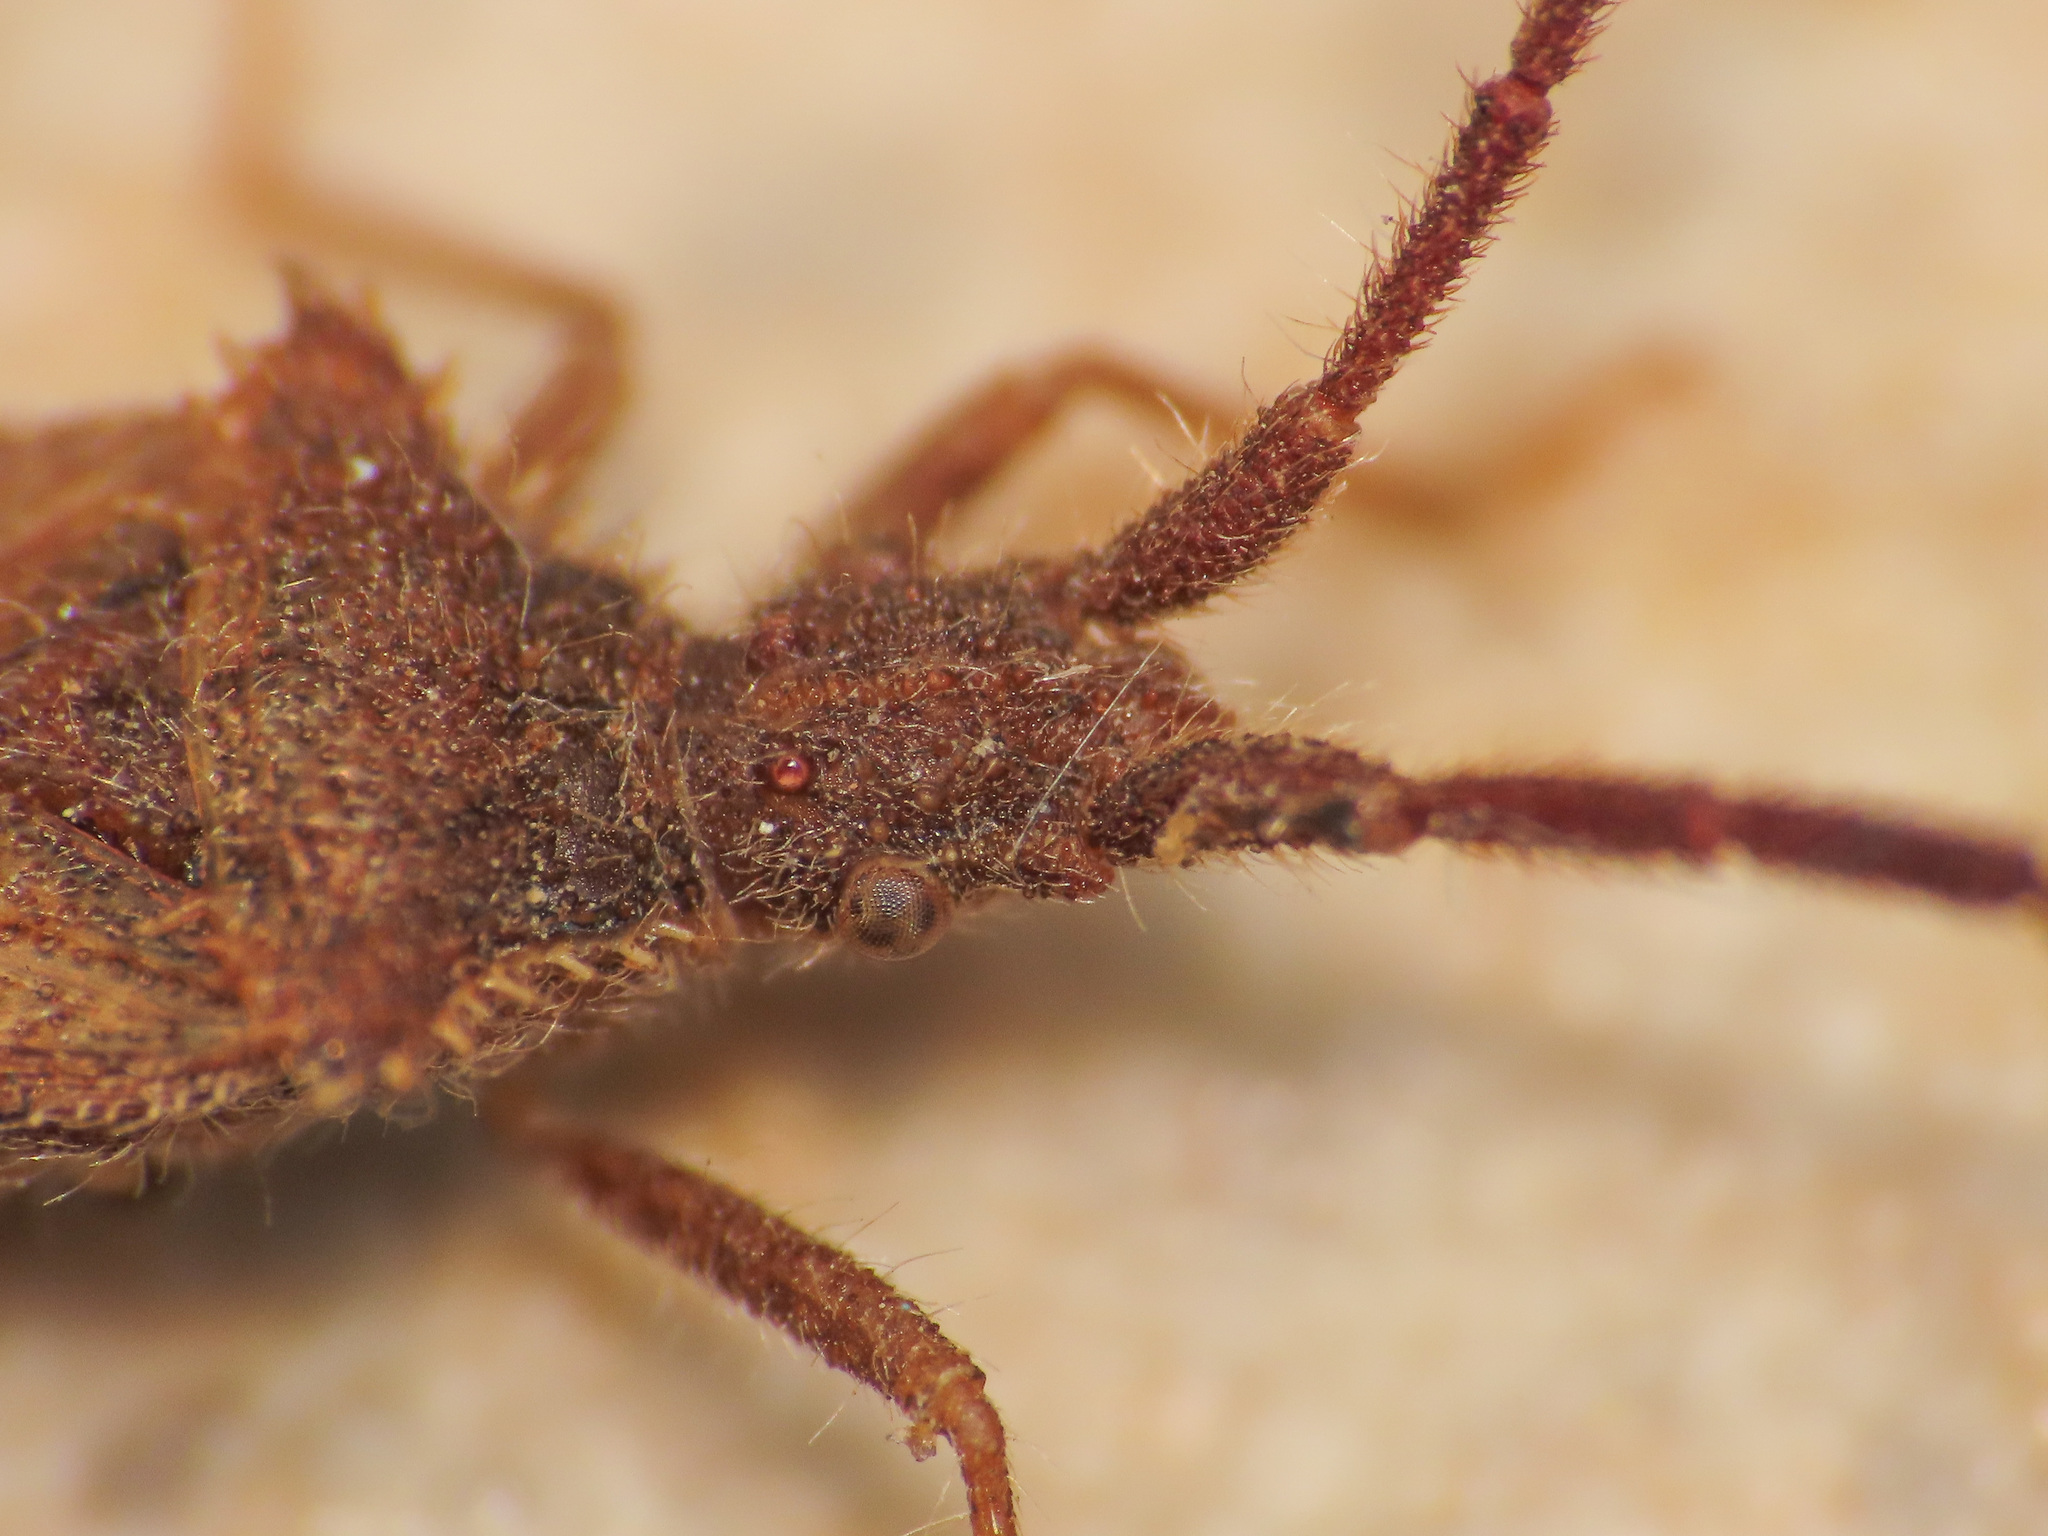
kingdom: Animalia
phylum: Arthropoda
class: Insecta
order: Hemiptera
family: Coreidae
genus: Coriomeris
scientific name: Coriomeris affinis
